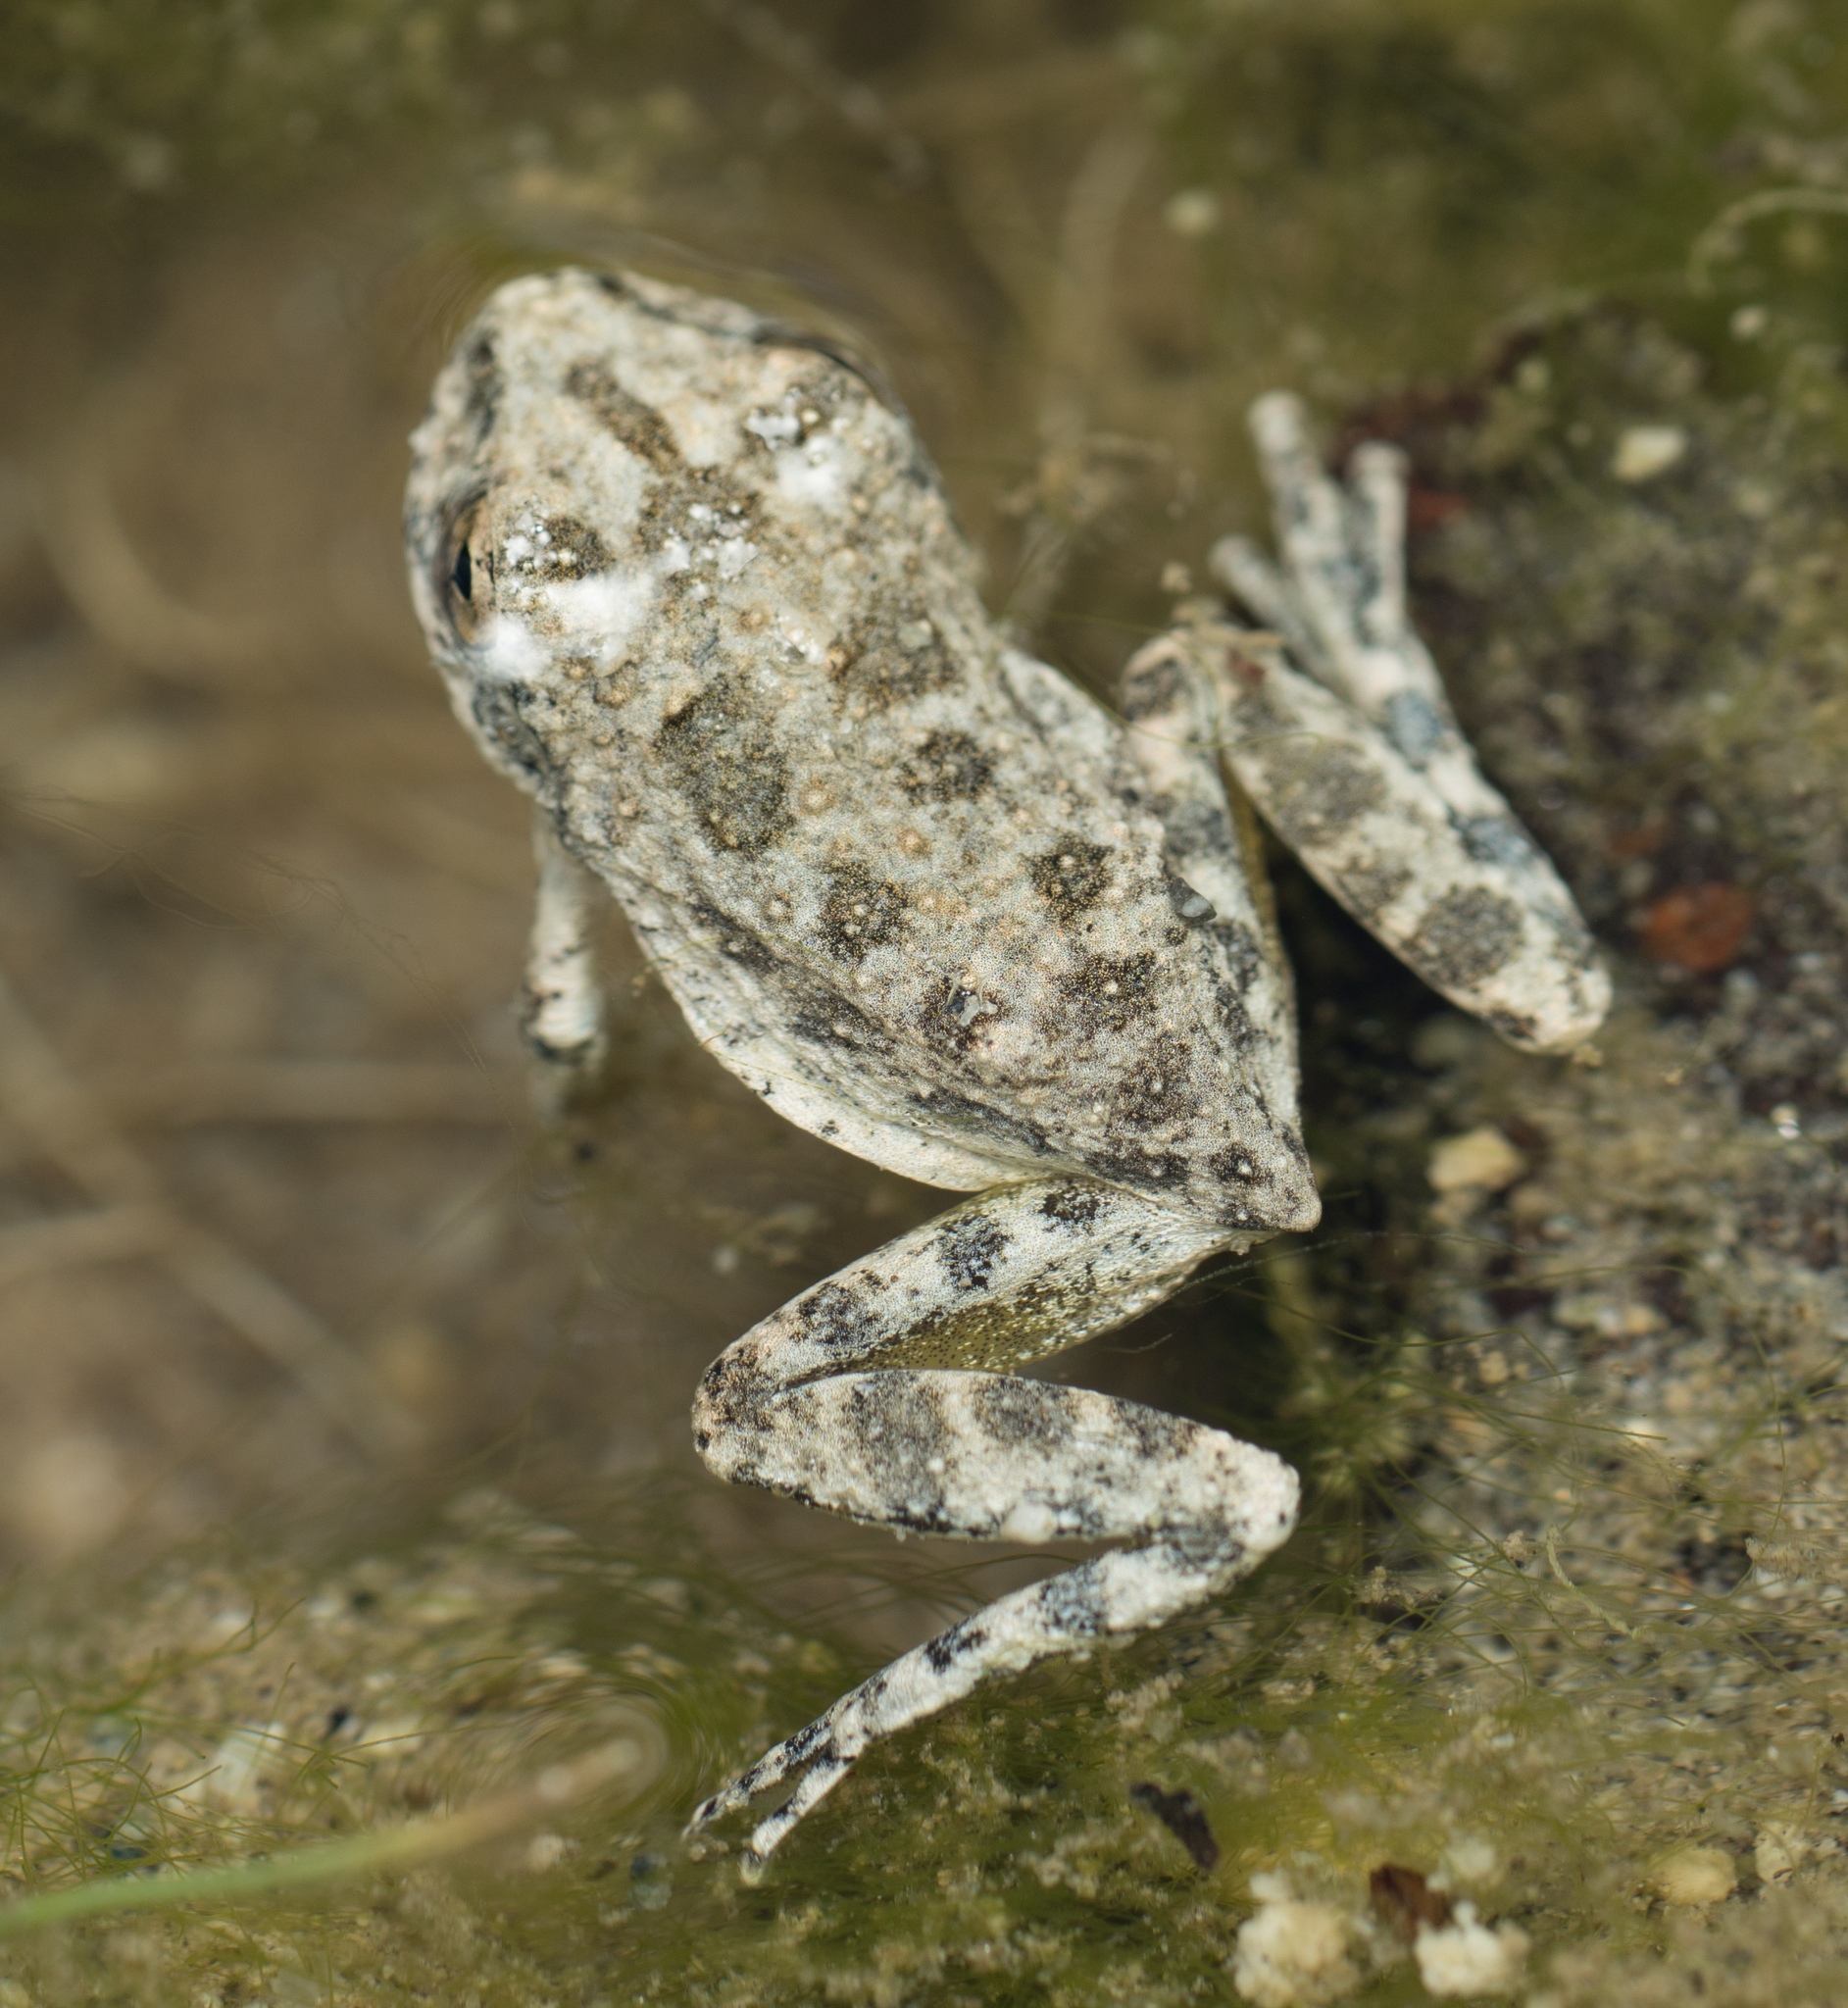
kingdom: Animalia
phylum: Chordata
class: Amphibia
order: Anura
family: Hylidae
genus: Pseudacris
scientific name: Pseudacris cadaverina
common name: California chorus frog
